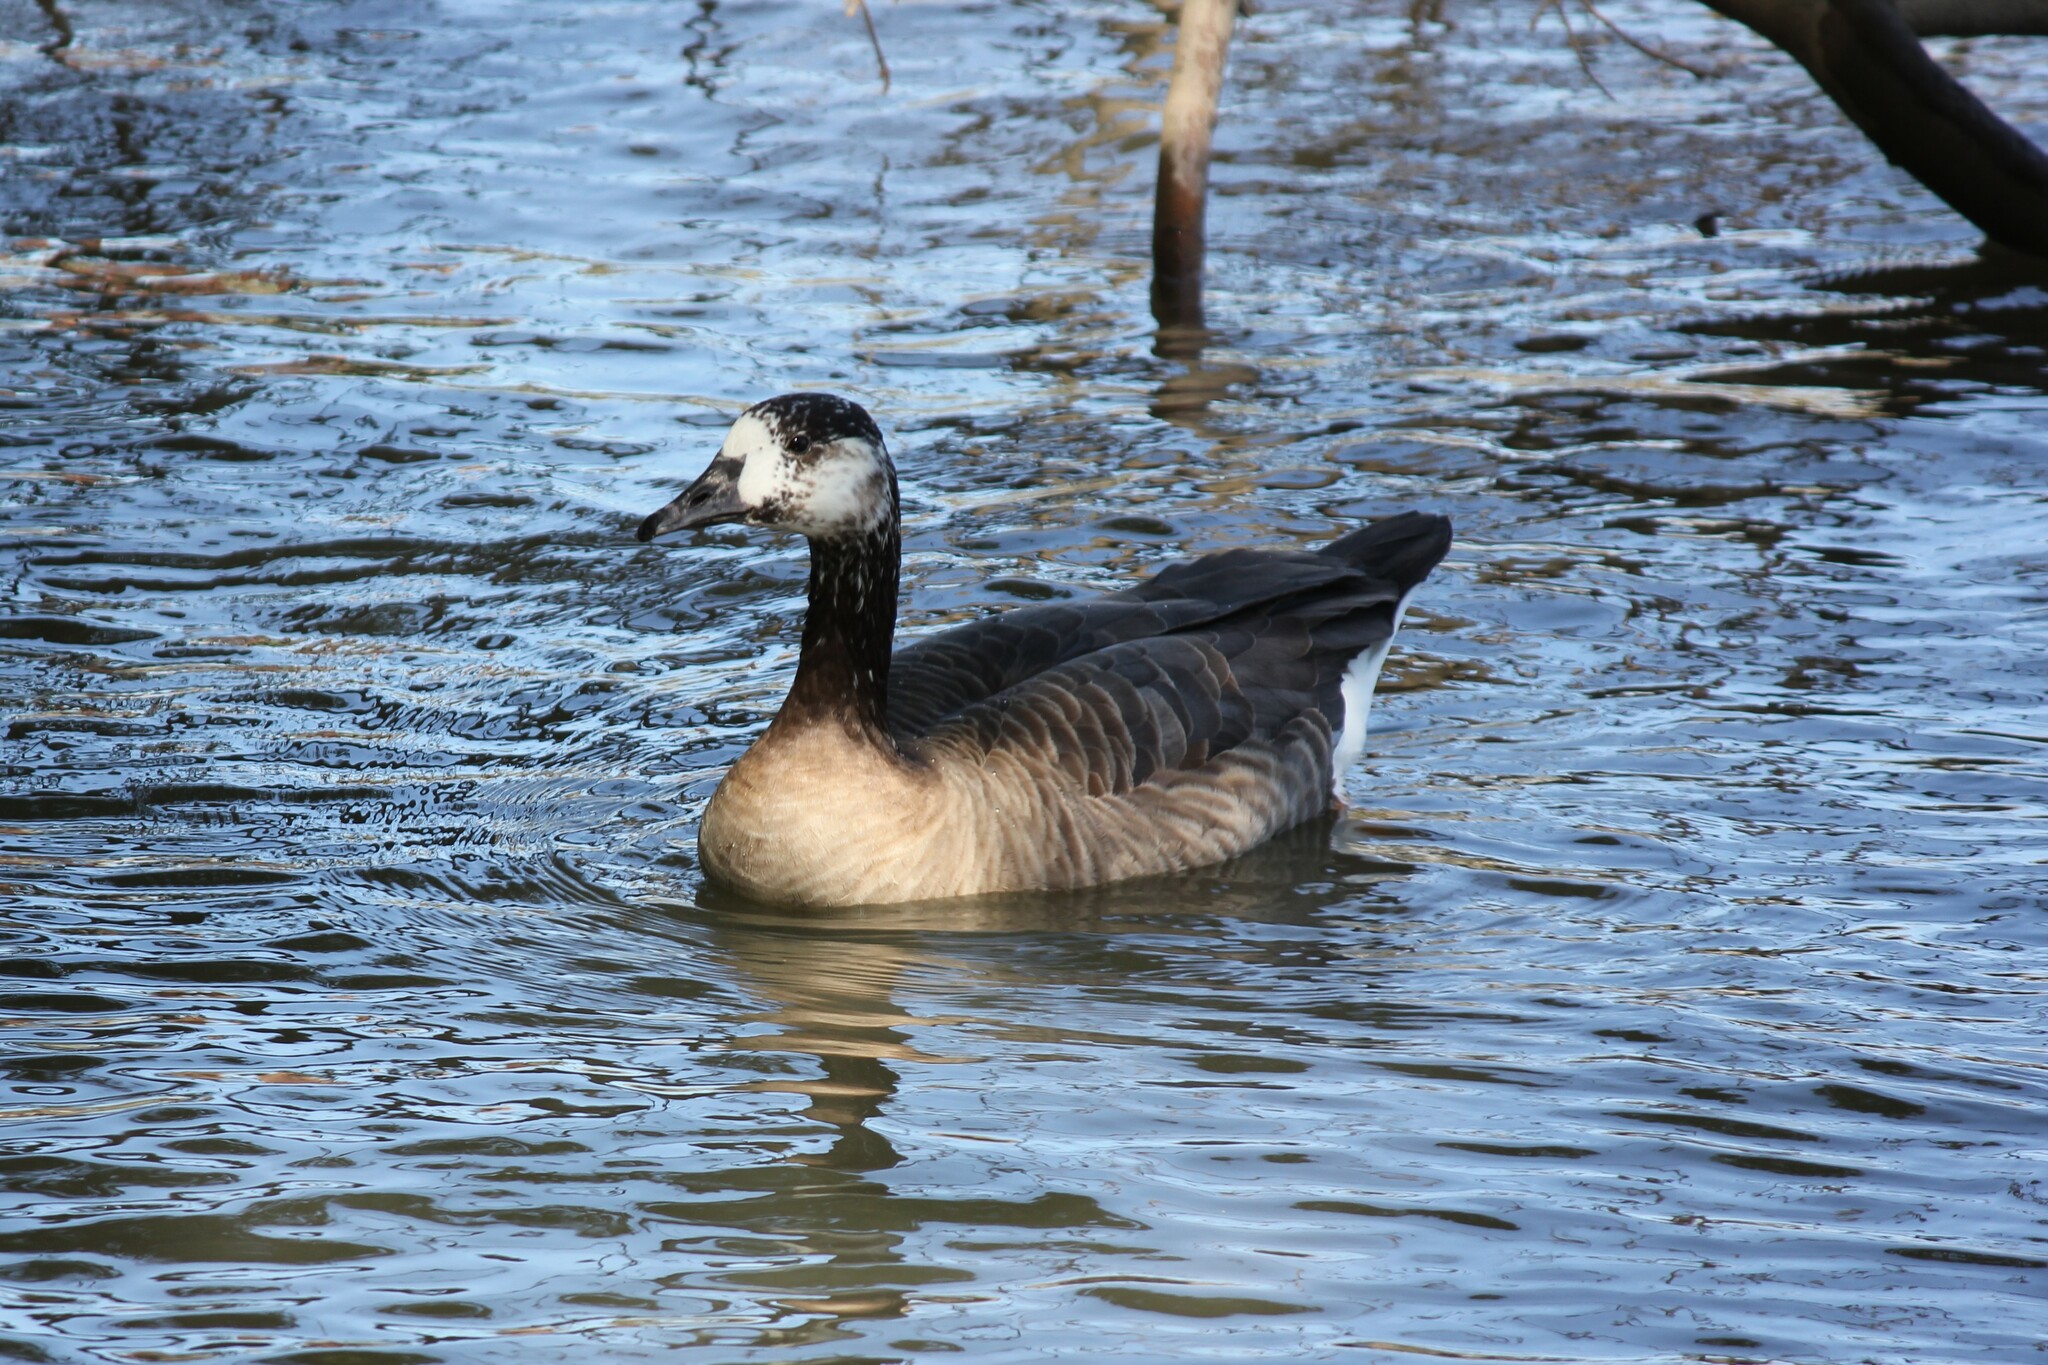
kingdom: Animalia
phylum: Chordata
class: Aves
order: Anseriformes
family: Anatidae
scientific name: Anatidae
